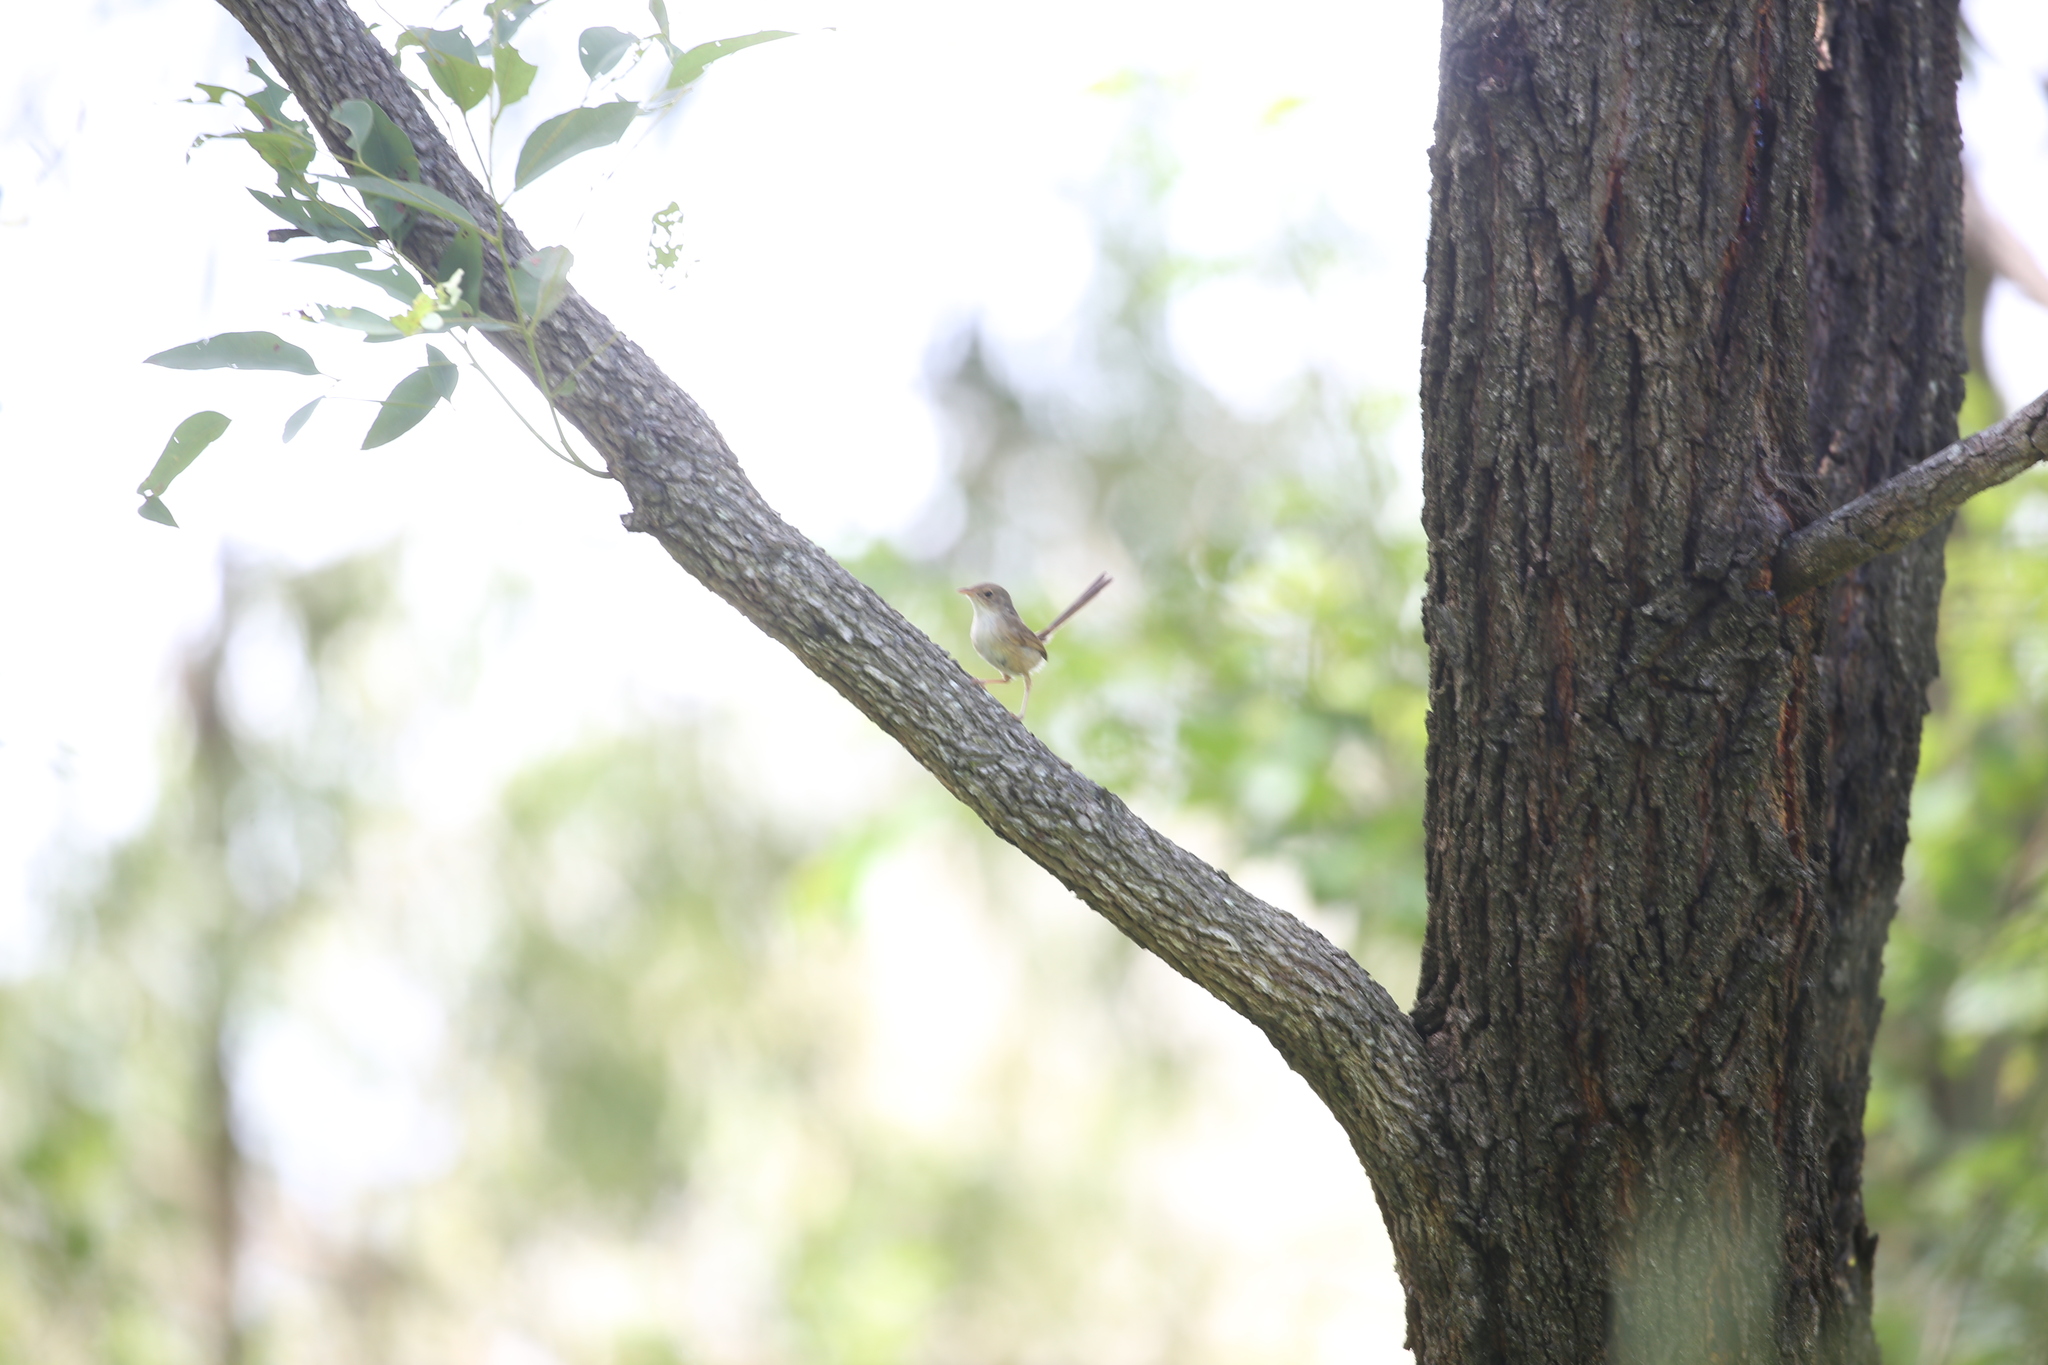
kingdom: Animalia
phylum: Chordata
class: Aves
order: Passeriformes
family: Maluridae
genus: Malurus
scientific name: Malurus melanocephalus
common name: Red-backed fairywren
